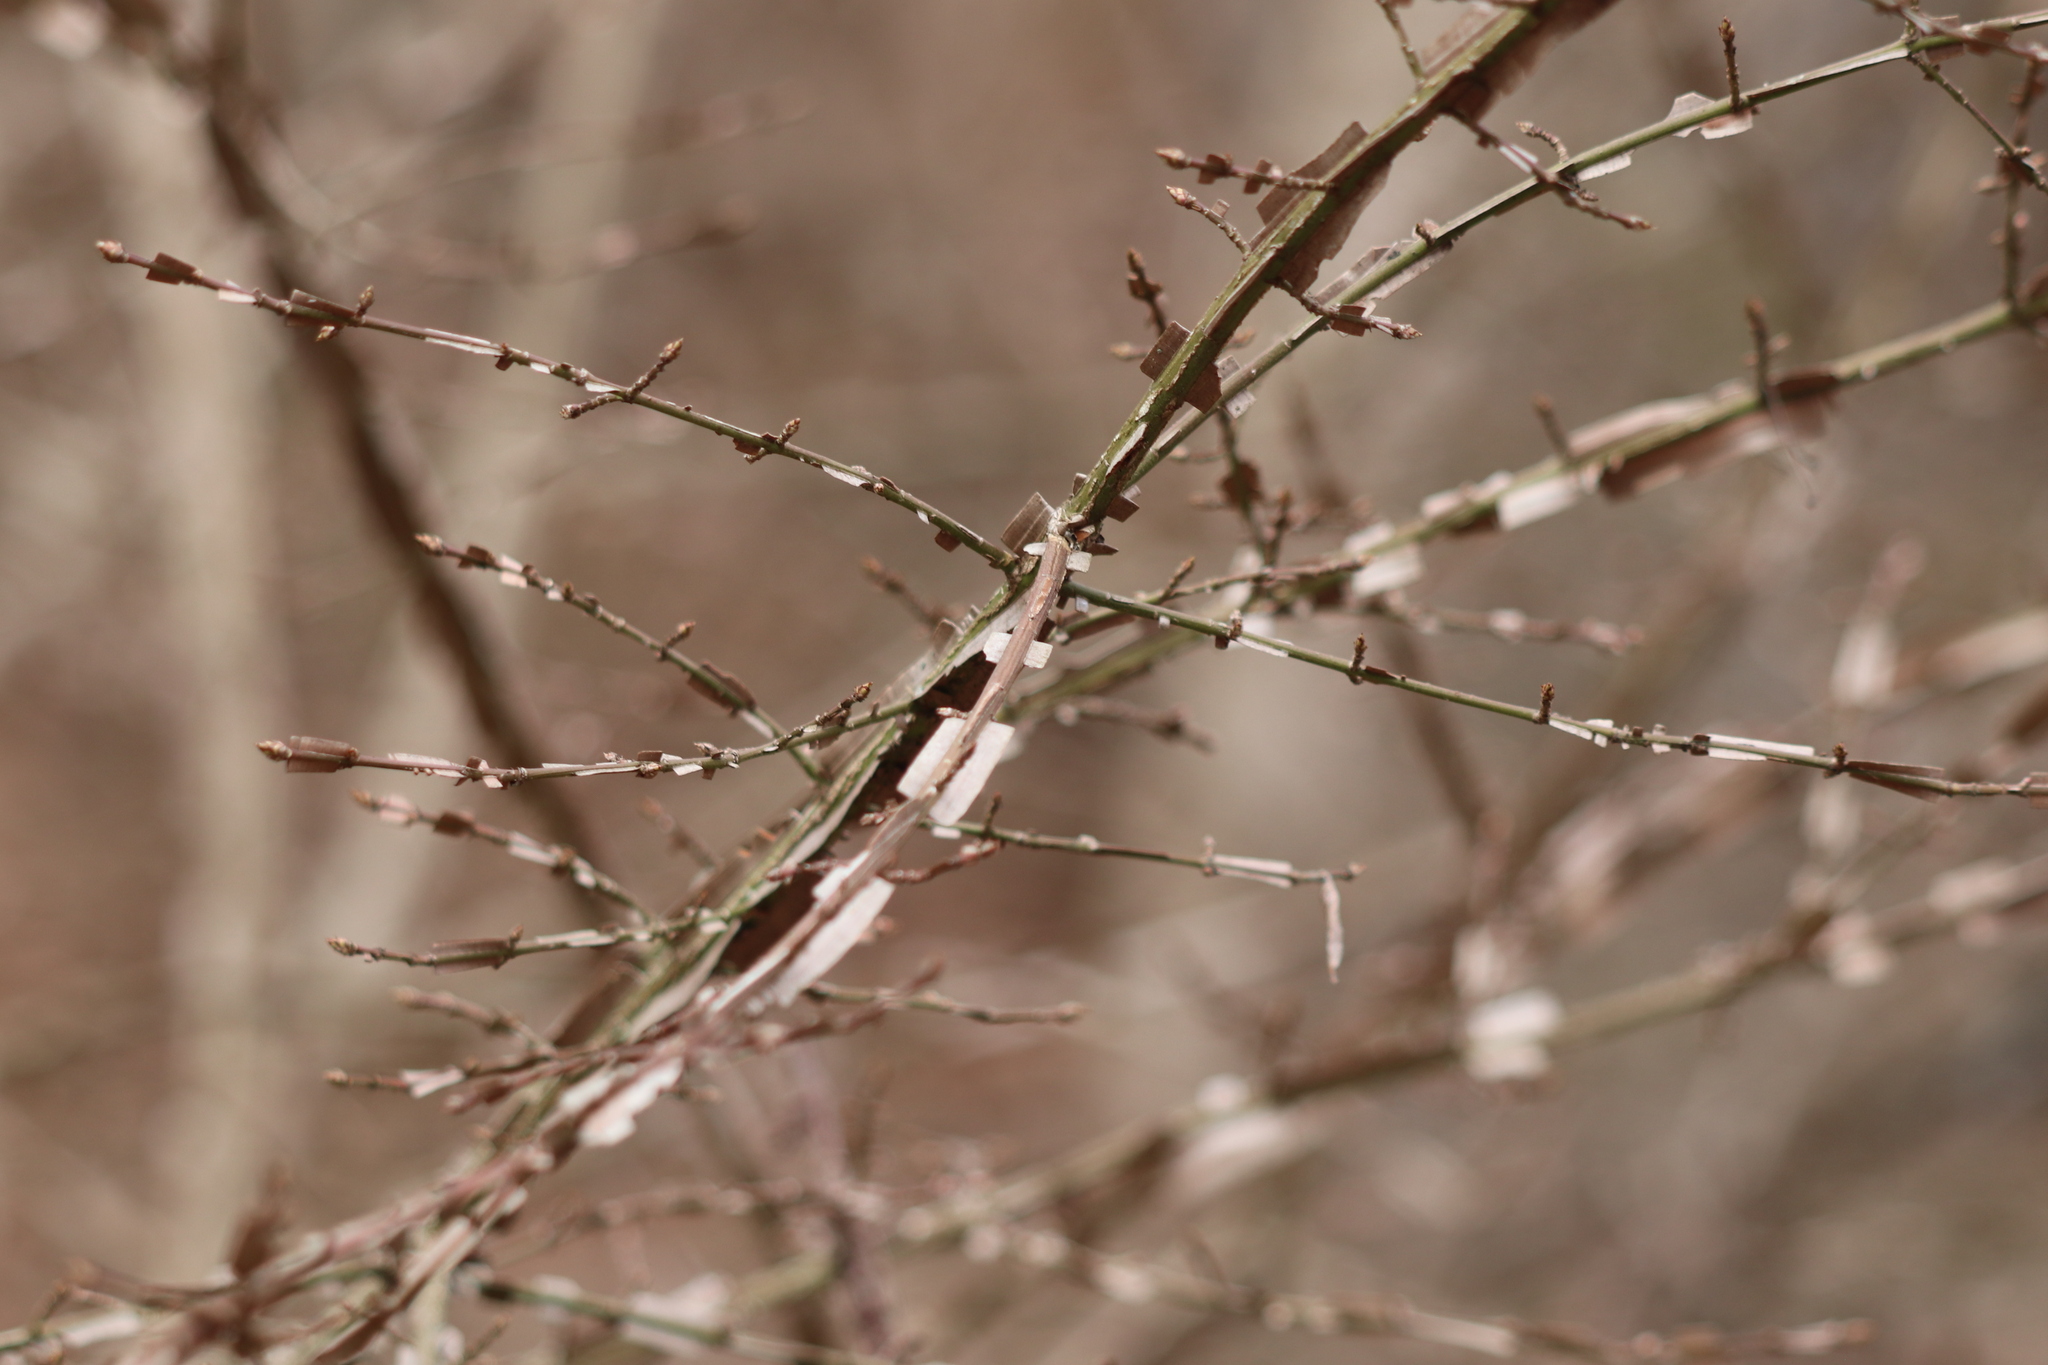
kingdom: Plantae
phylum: Tracheophyta
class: Magnoliopsida
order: Celastrales
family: Celastraceae
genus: Euonymus
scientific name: Euonymus alatus
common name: Winged euonymus
